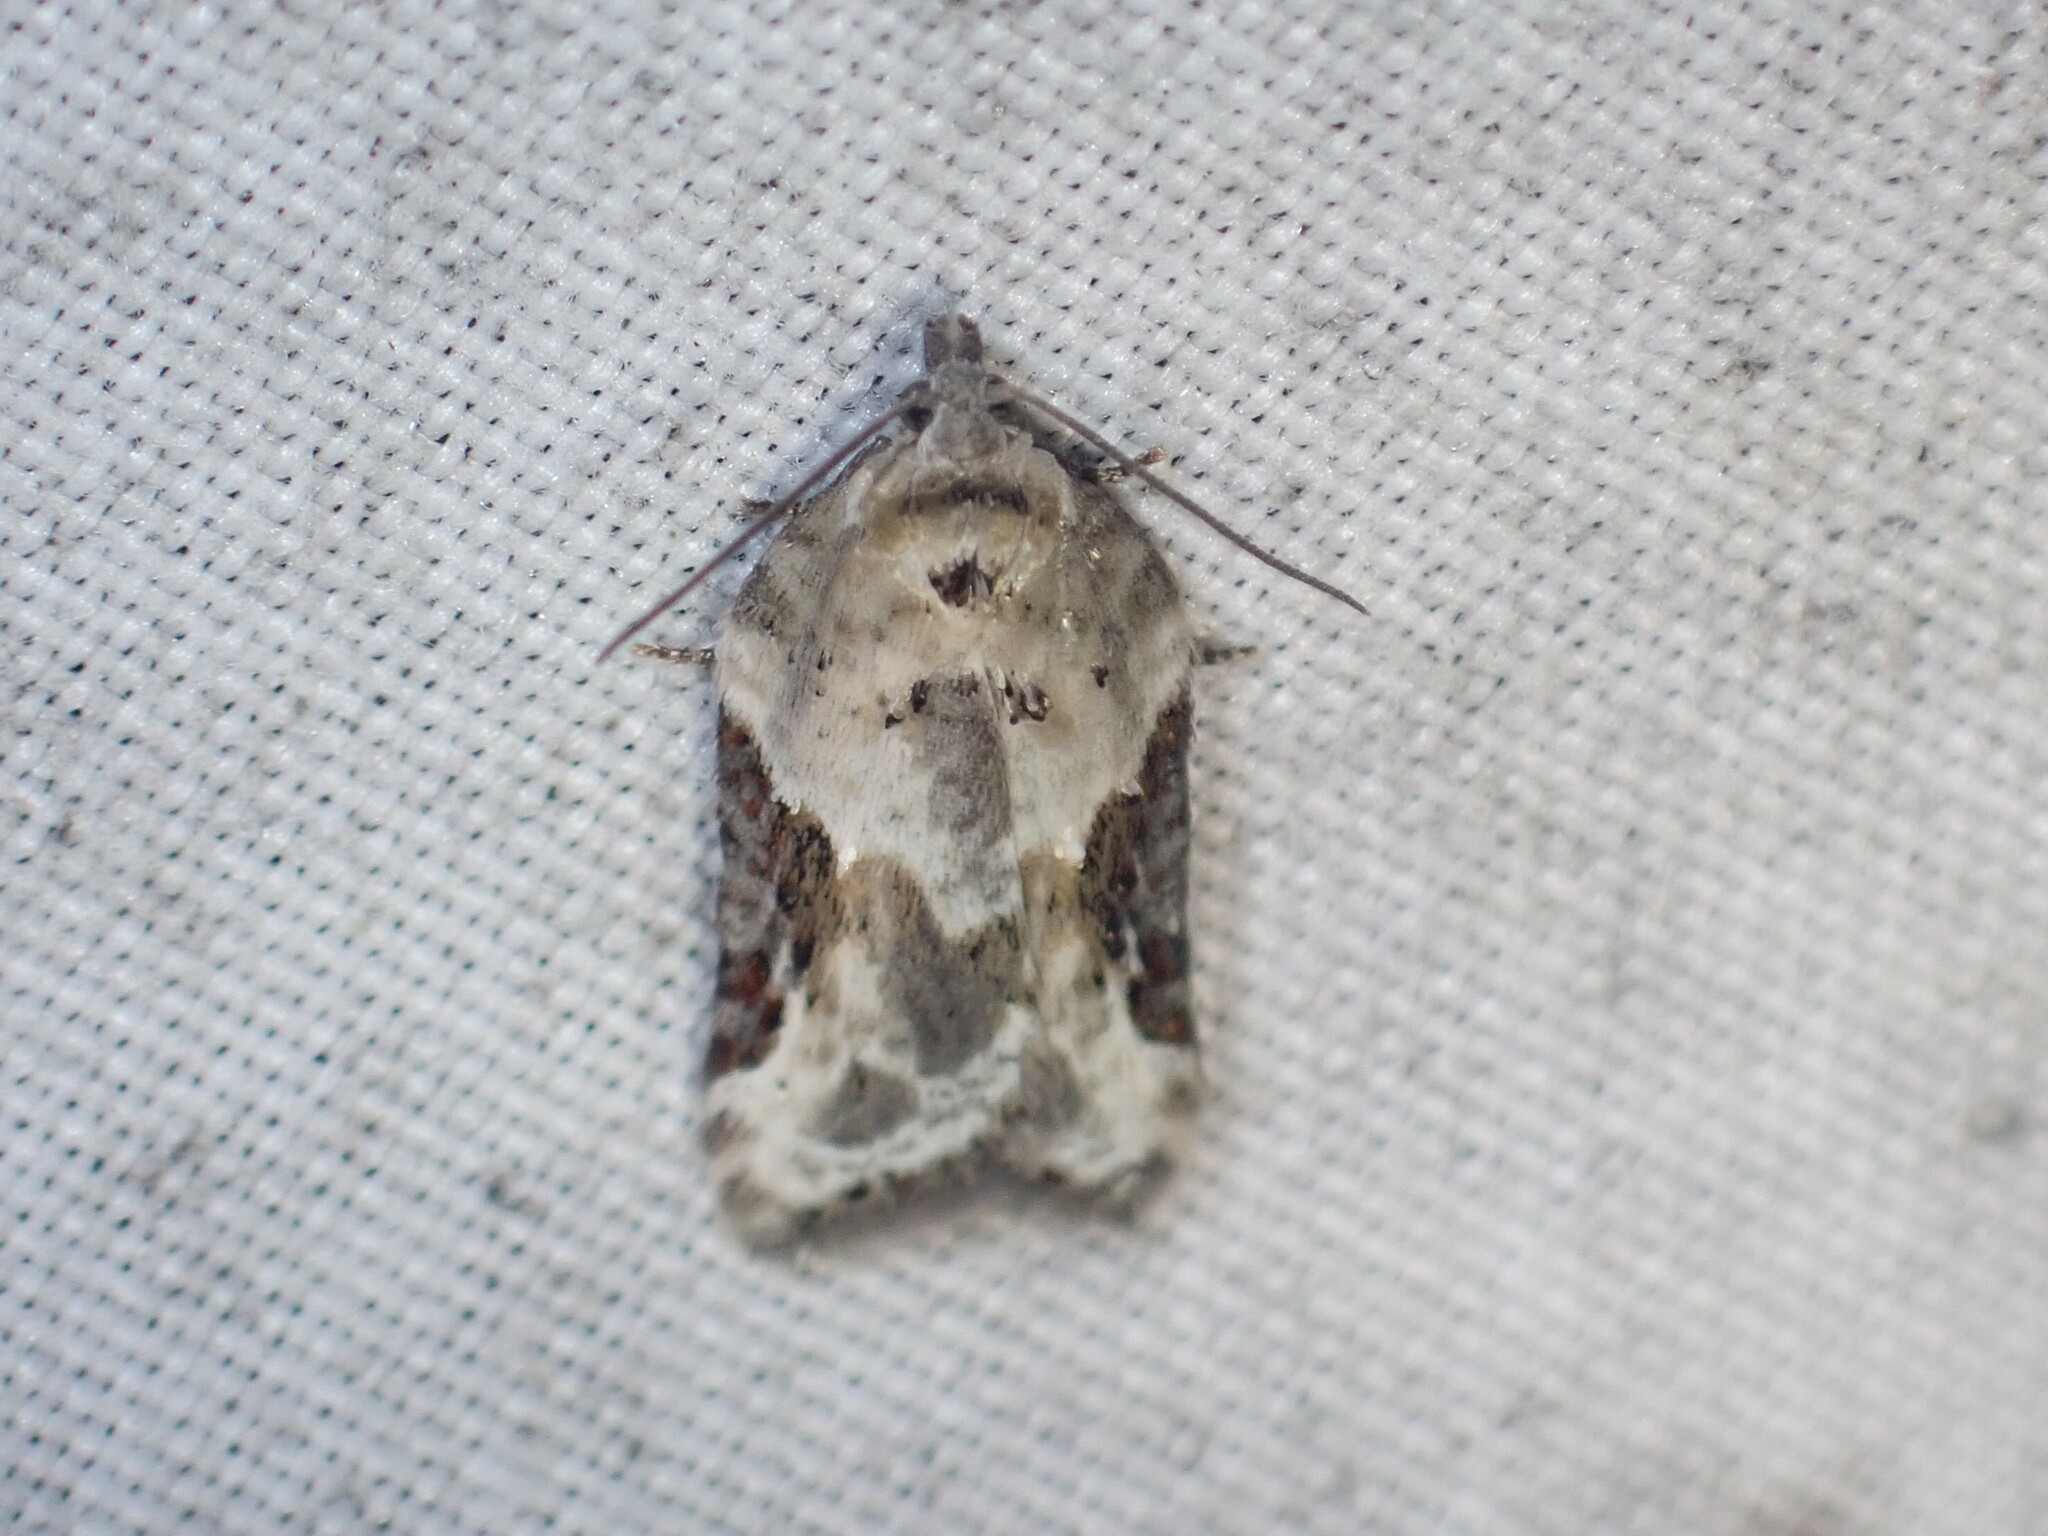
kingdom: Animalia
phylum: Arthropoda
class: Insecta
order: Lepidoptera
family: Tortricidae
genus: Acleris
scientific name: Acleris forbesana
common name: Forbes' acleris moth
